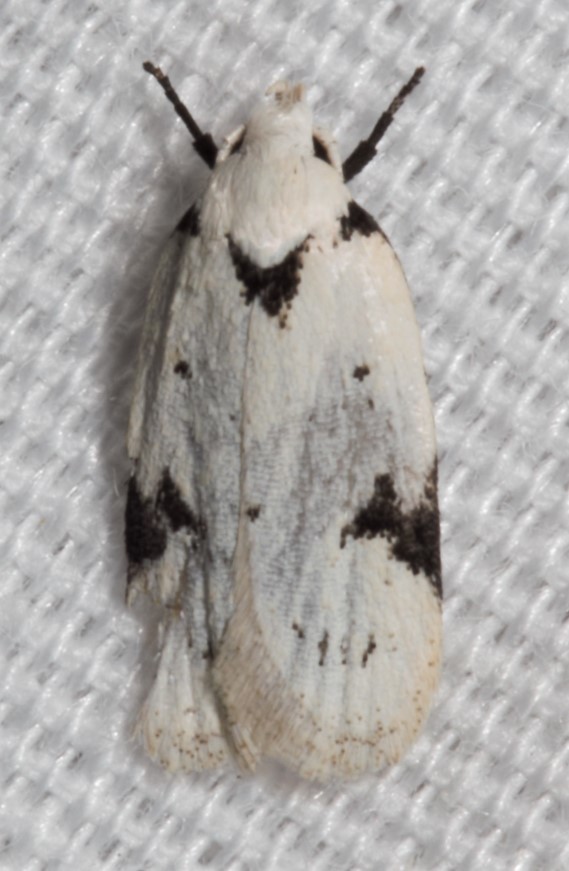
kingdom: Animalia
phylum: Arthropoda
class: Insecta
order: Lepidoptera
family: Oecophoridae
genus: Inga
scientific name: Inga sparsiciliella
